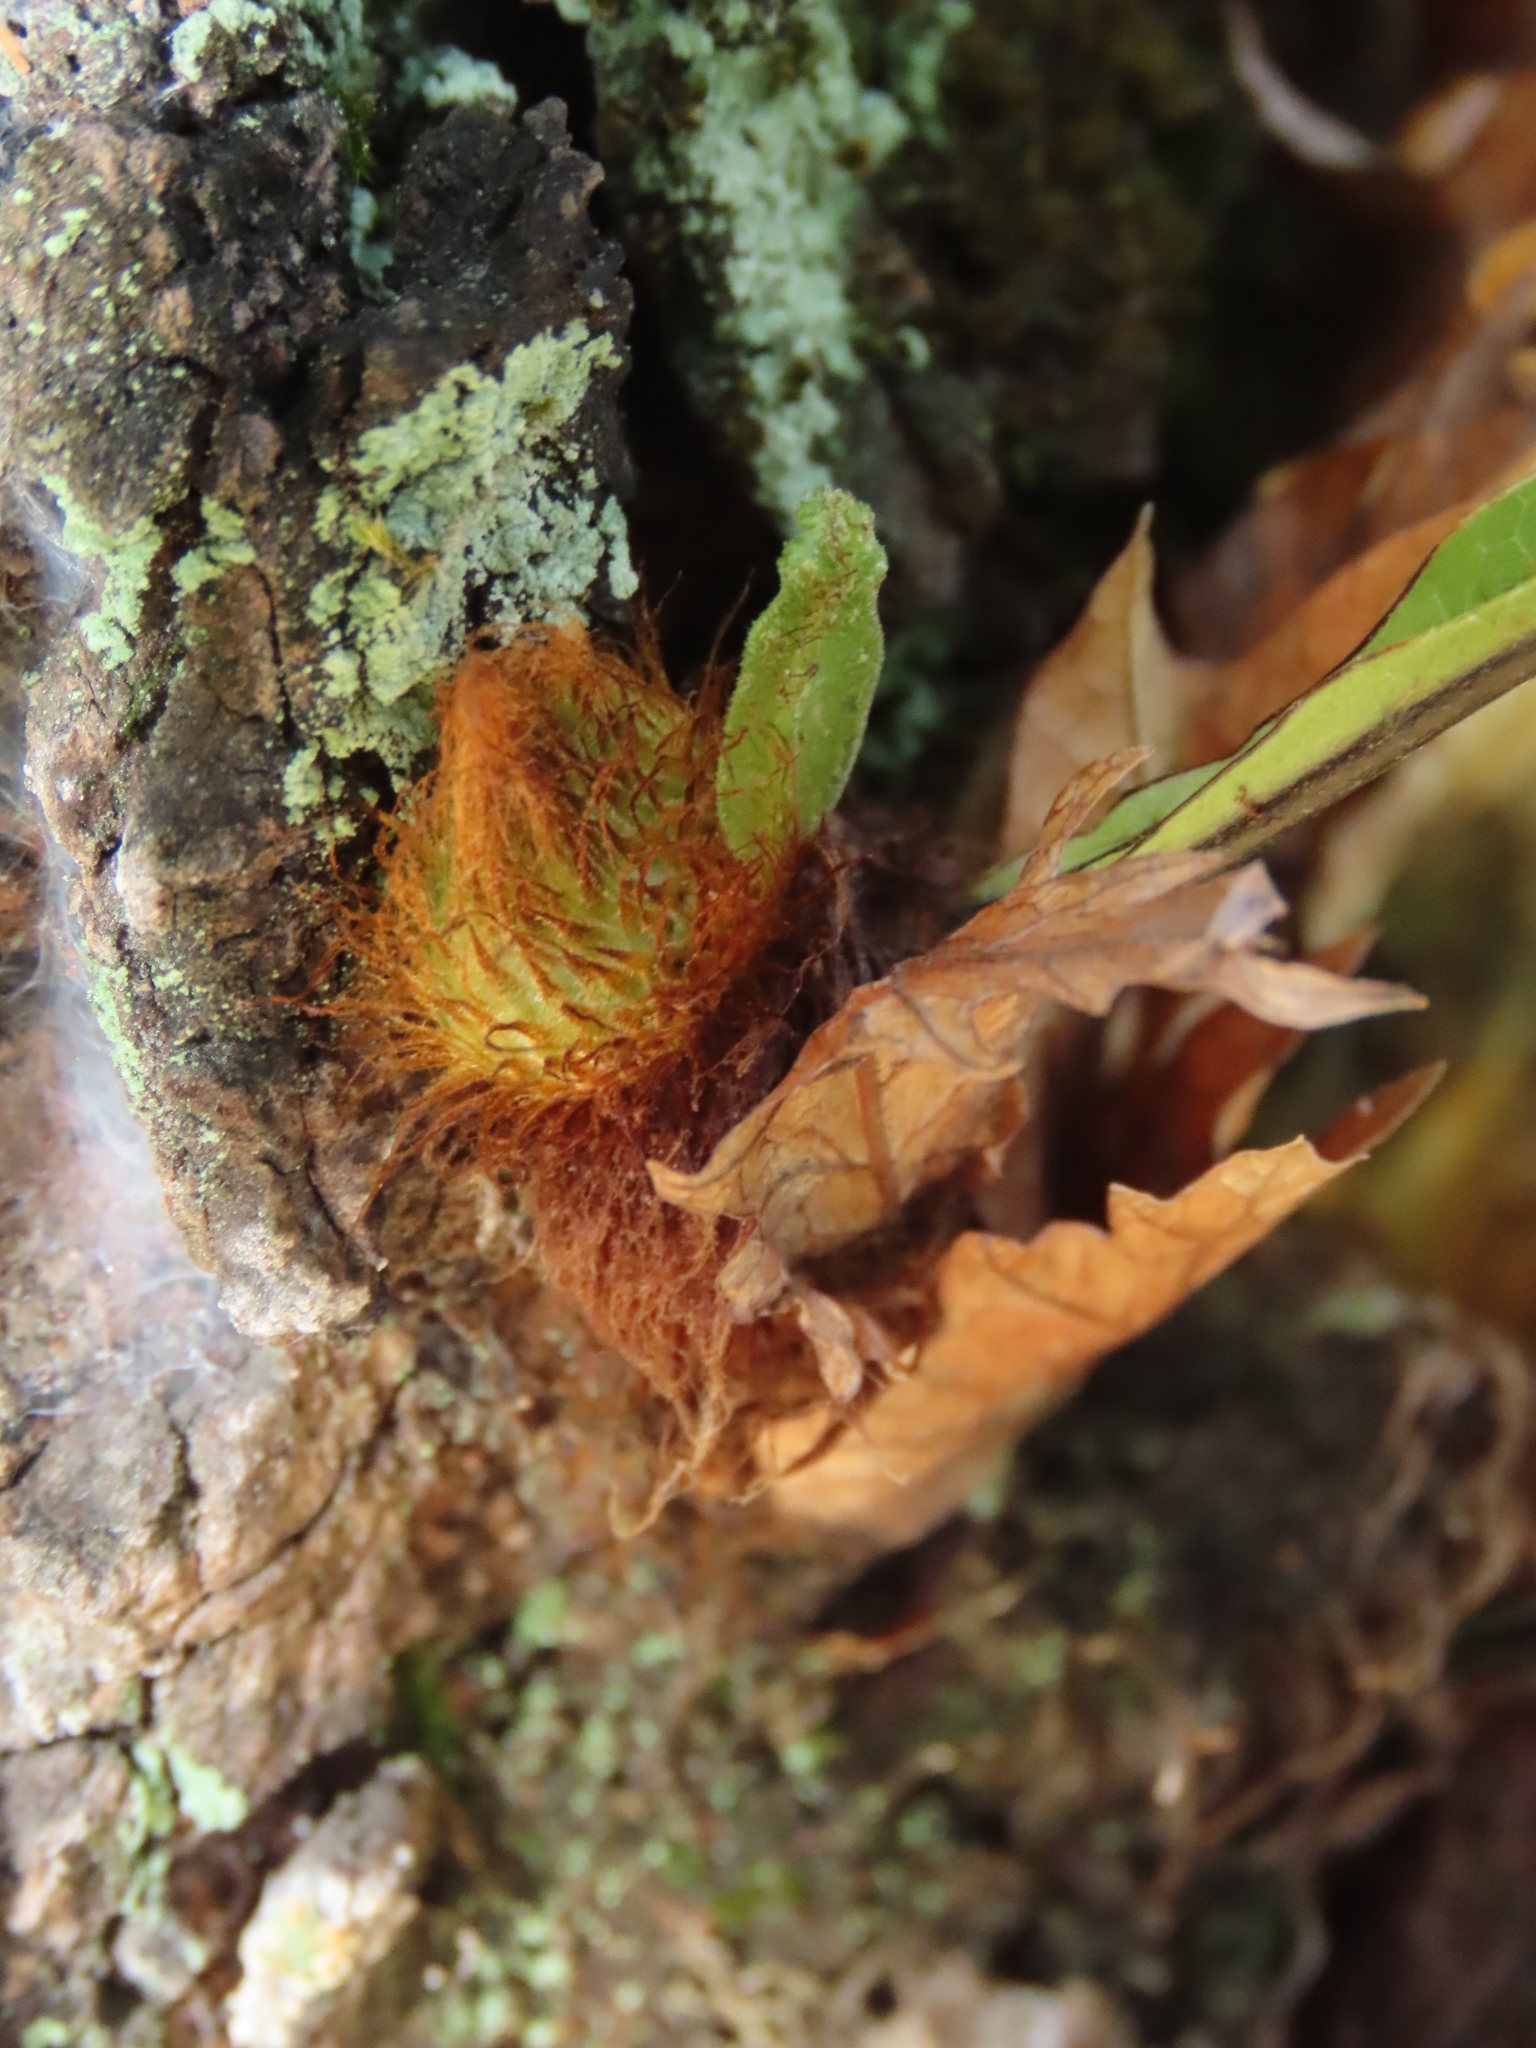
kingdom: Plantae
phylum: Tracheophyta
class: Polypodiopsida
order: Polypodiales
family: Polypodiaceae
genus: Drynaria
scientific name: Drynaria roosii
